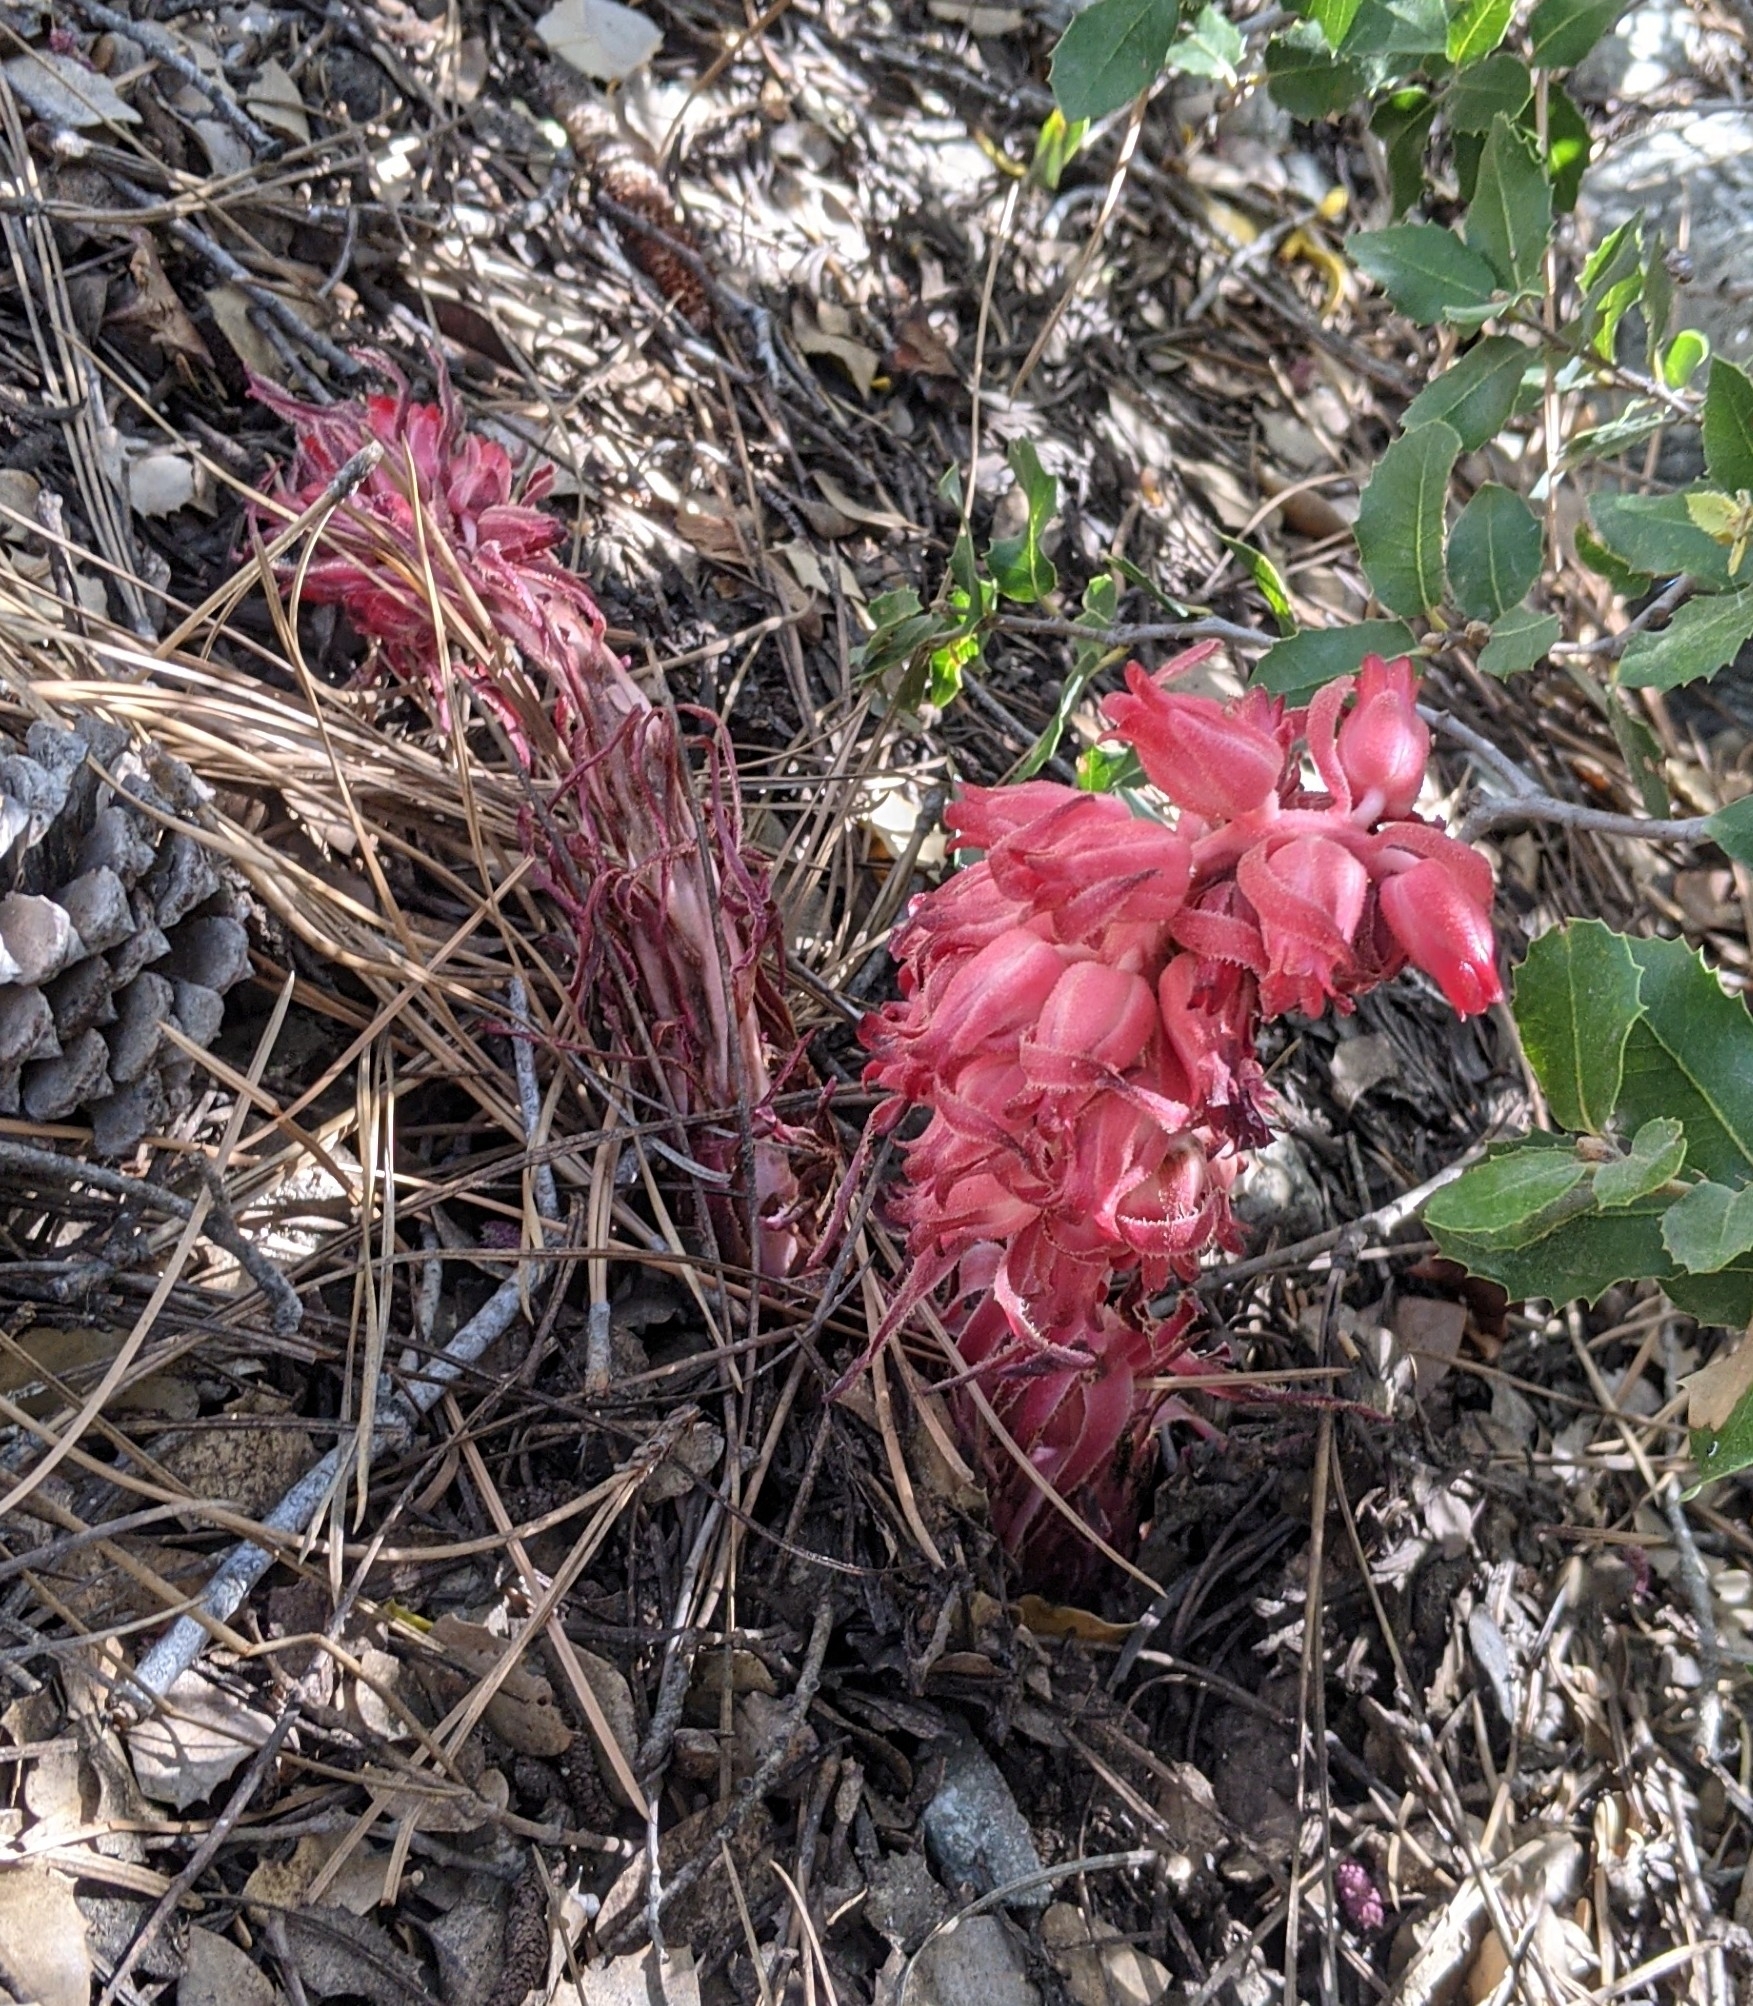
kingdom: Plantae
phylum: Tracheophyta
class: Magnoliopsida
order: Ericales
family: Ericaceae
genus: Sarcodes
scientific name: Sarcodes sanguinea
